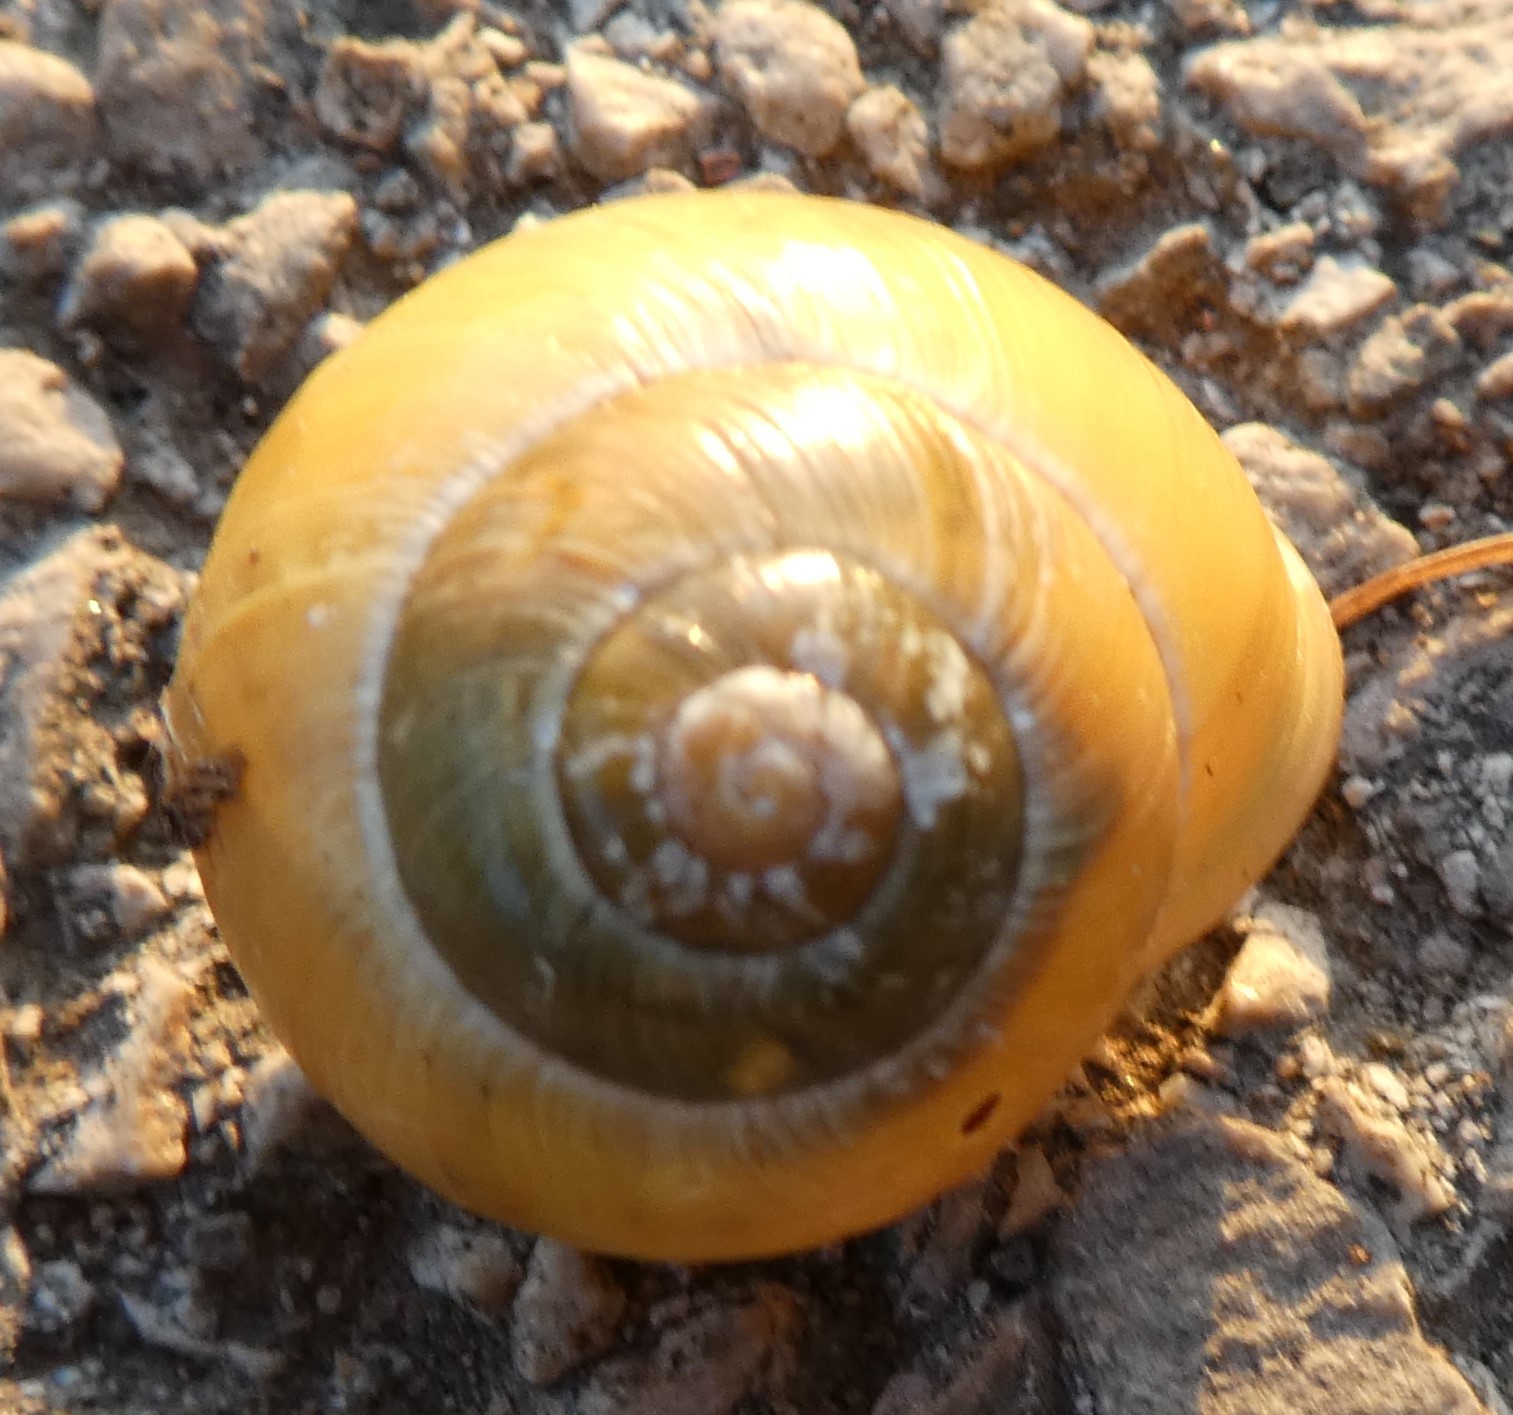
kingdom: Animalia
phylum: Mollusca
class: Gastropoda
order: Stylommatophora
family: Helicidae
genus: Cepaea
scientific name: Cepaea hortensis
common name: White-lip gardensnail
